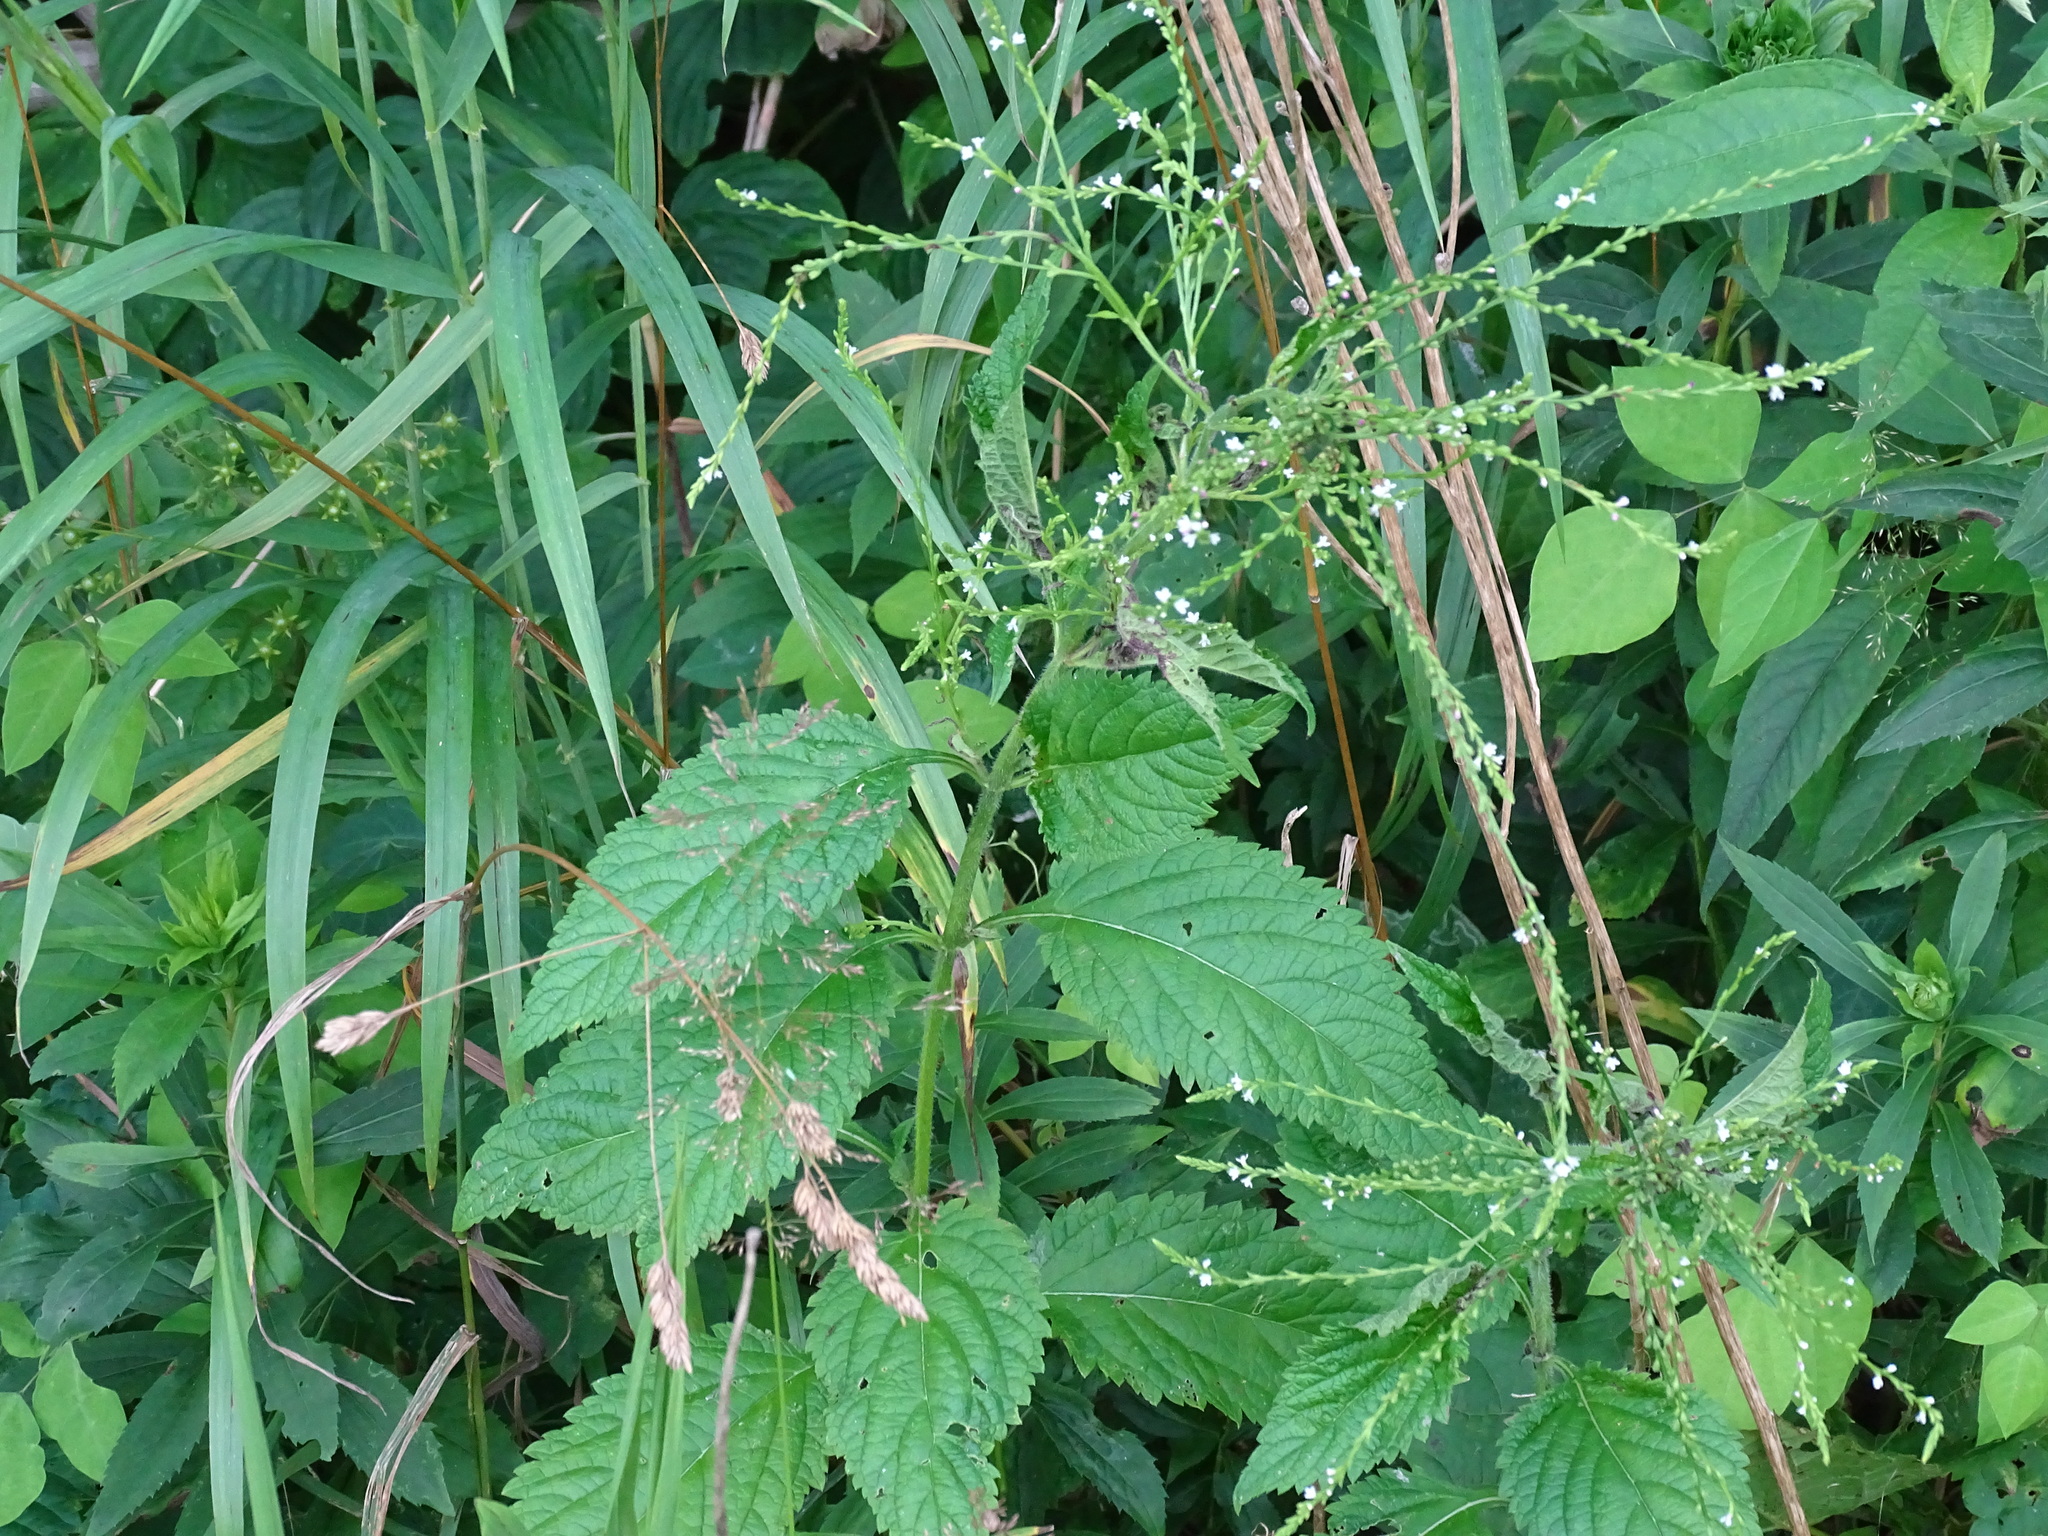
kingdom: Plantae
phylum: Tracheophyta
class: Magnoliopsida
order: Lamiales
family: Verbenaceae
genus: Verbena
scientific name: Verbena urticifolia
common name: Nettle-leaved vervain
